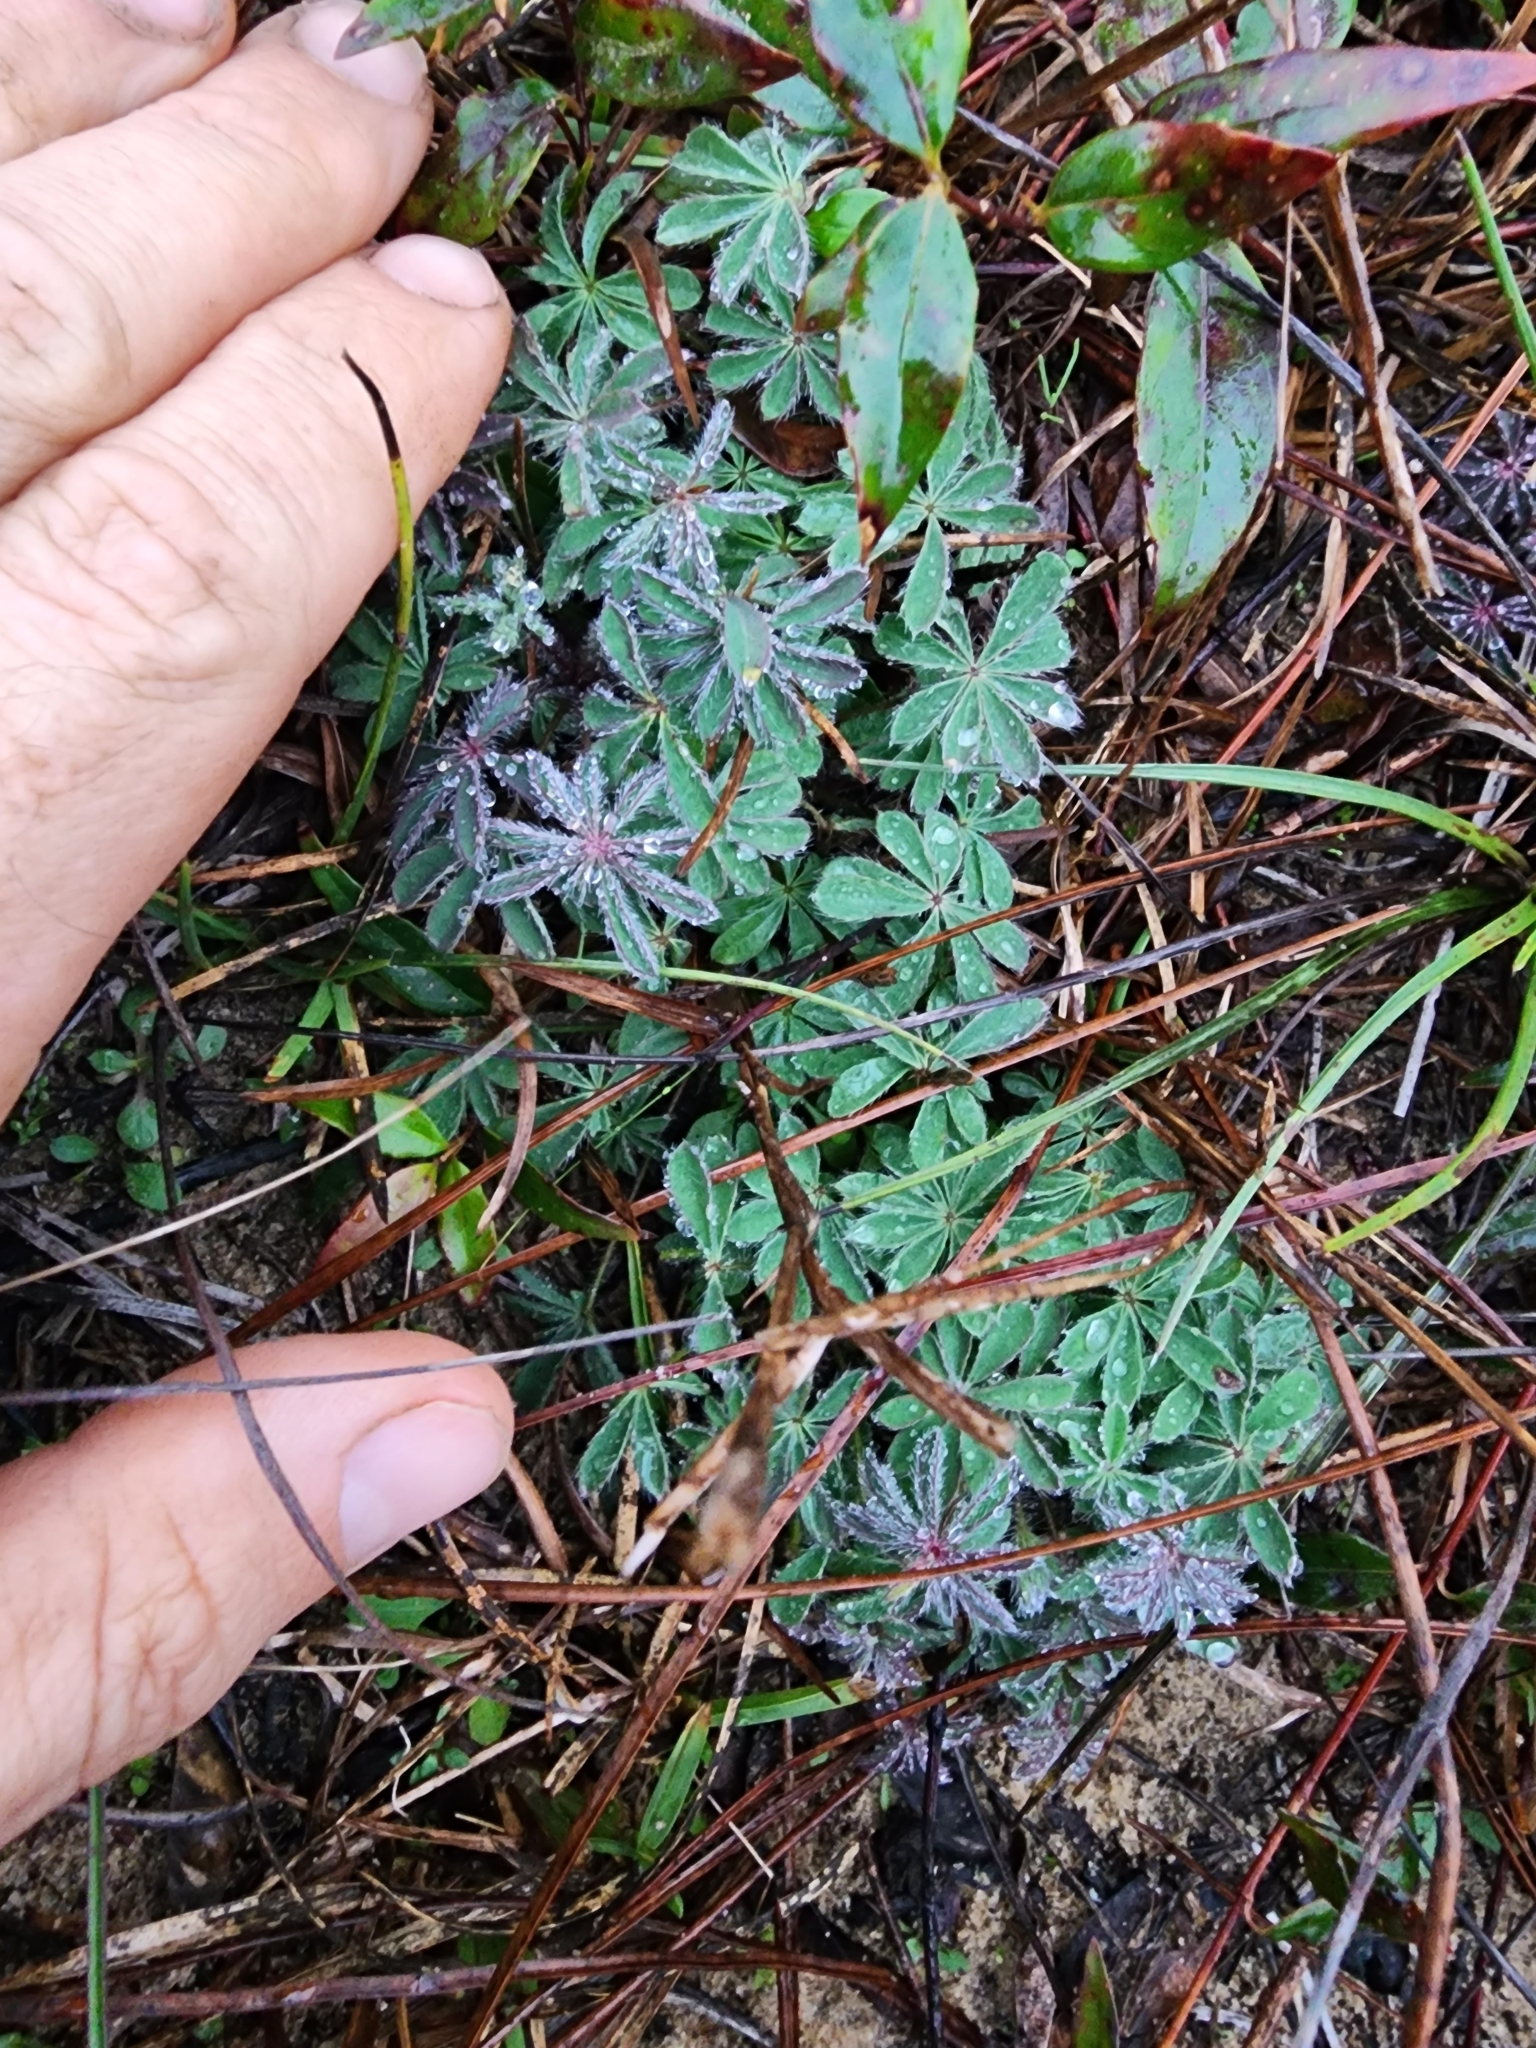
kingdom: Plantae
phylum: Tracheophyta
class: Magnoliopsida
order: Fabales
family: Fabaceae
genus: Lupinus
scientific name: Lupinus perennis
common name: Sundial lupine
